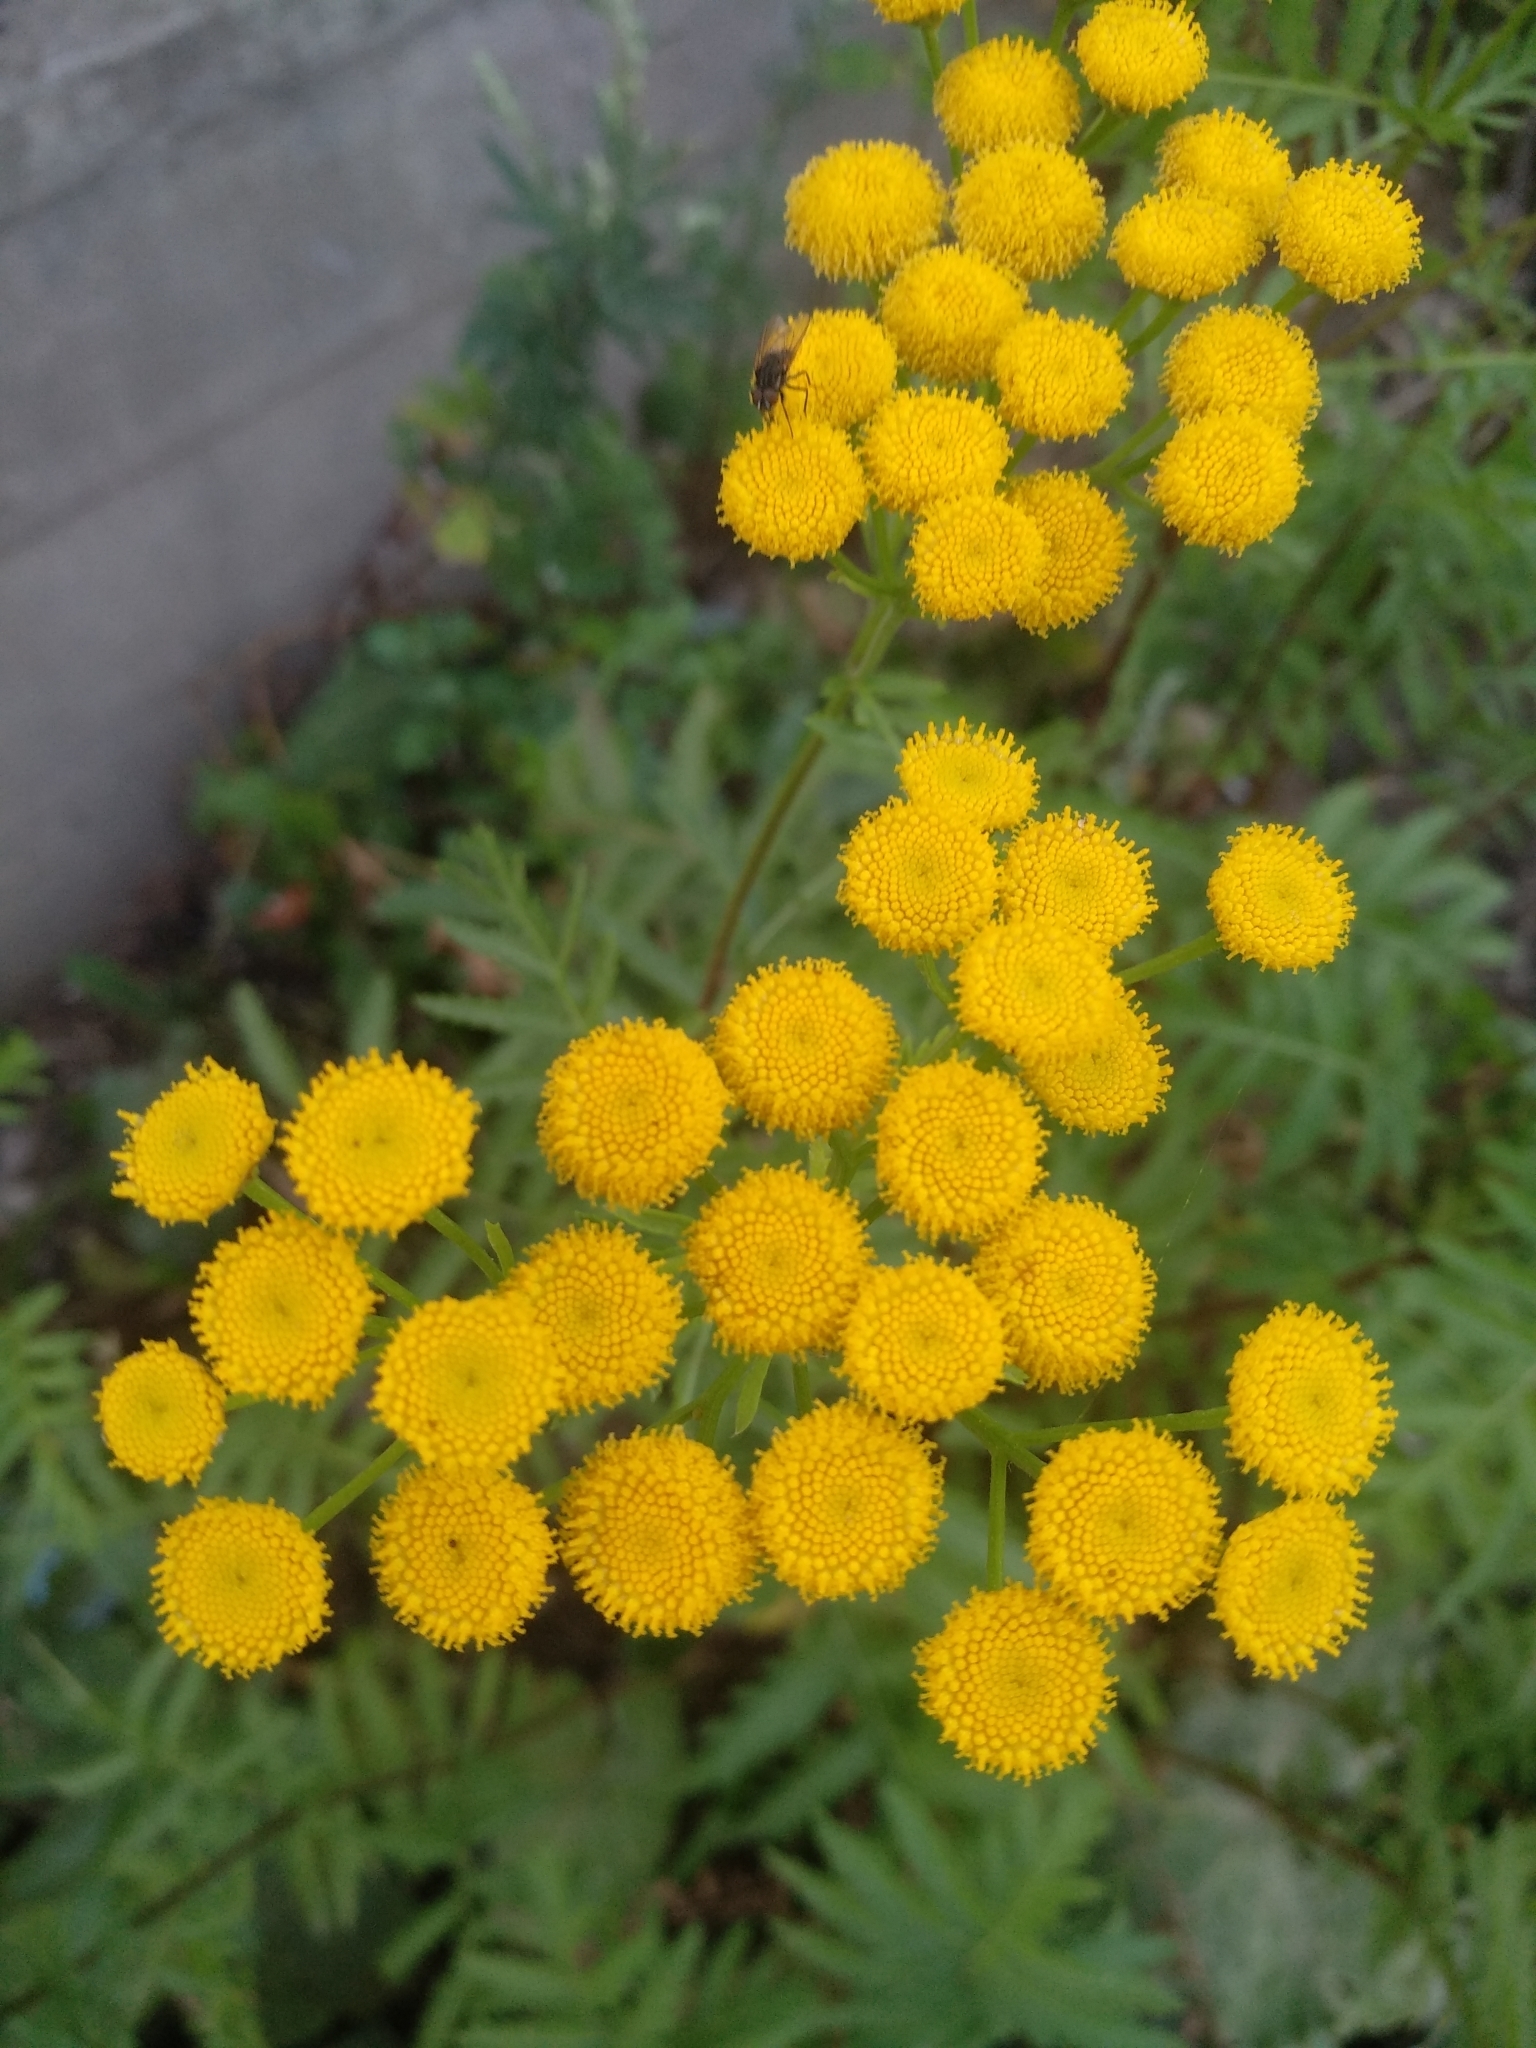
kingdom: Plantae
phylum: Tracheophyta
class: Magnoliopsida
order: Asterales
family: Asteraceae
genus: Tanacetum
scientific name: Tanacetum vulgare
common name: Common tansy
